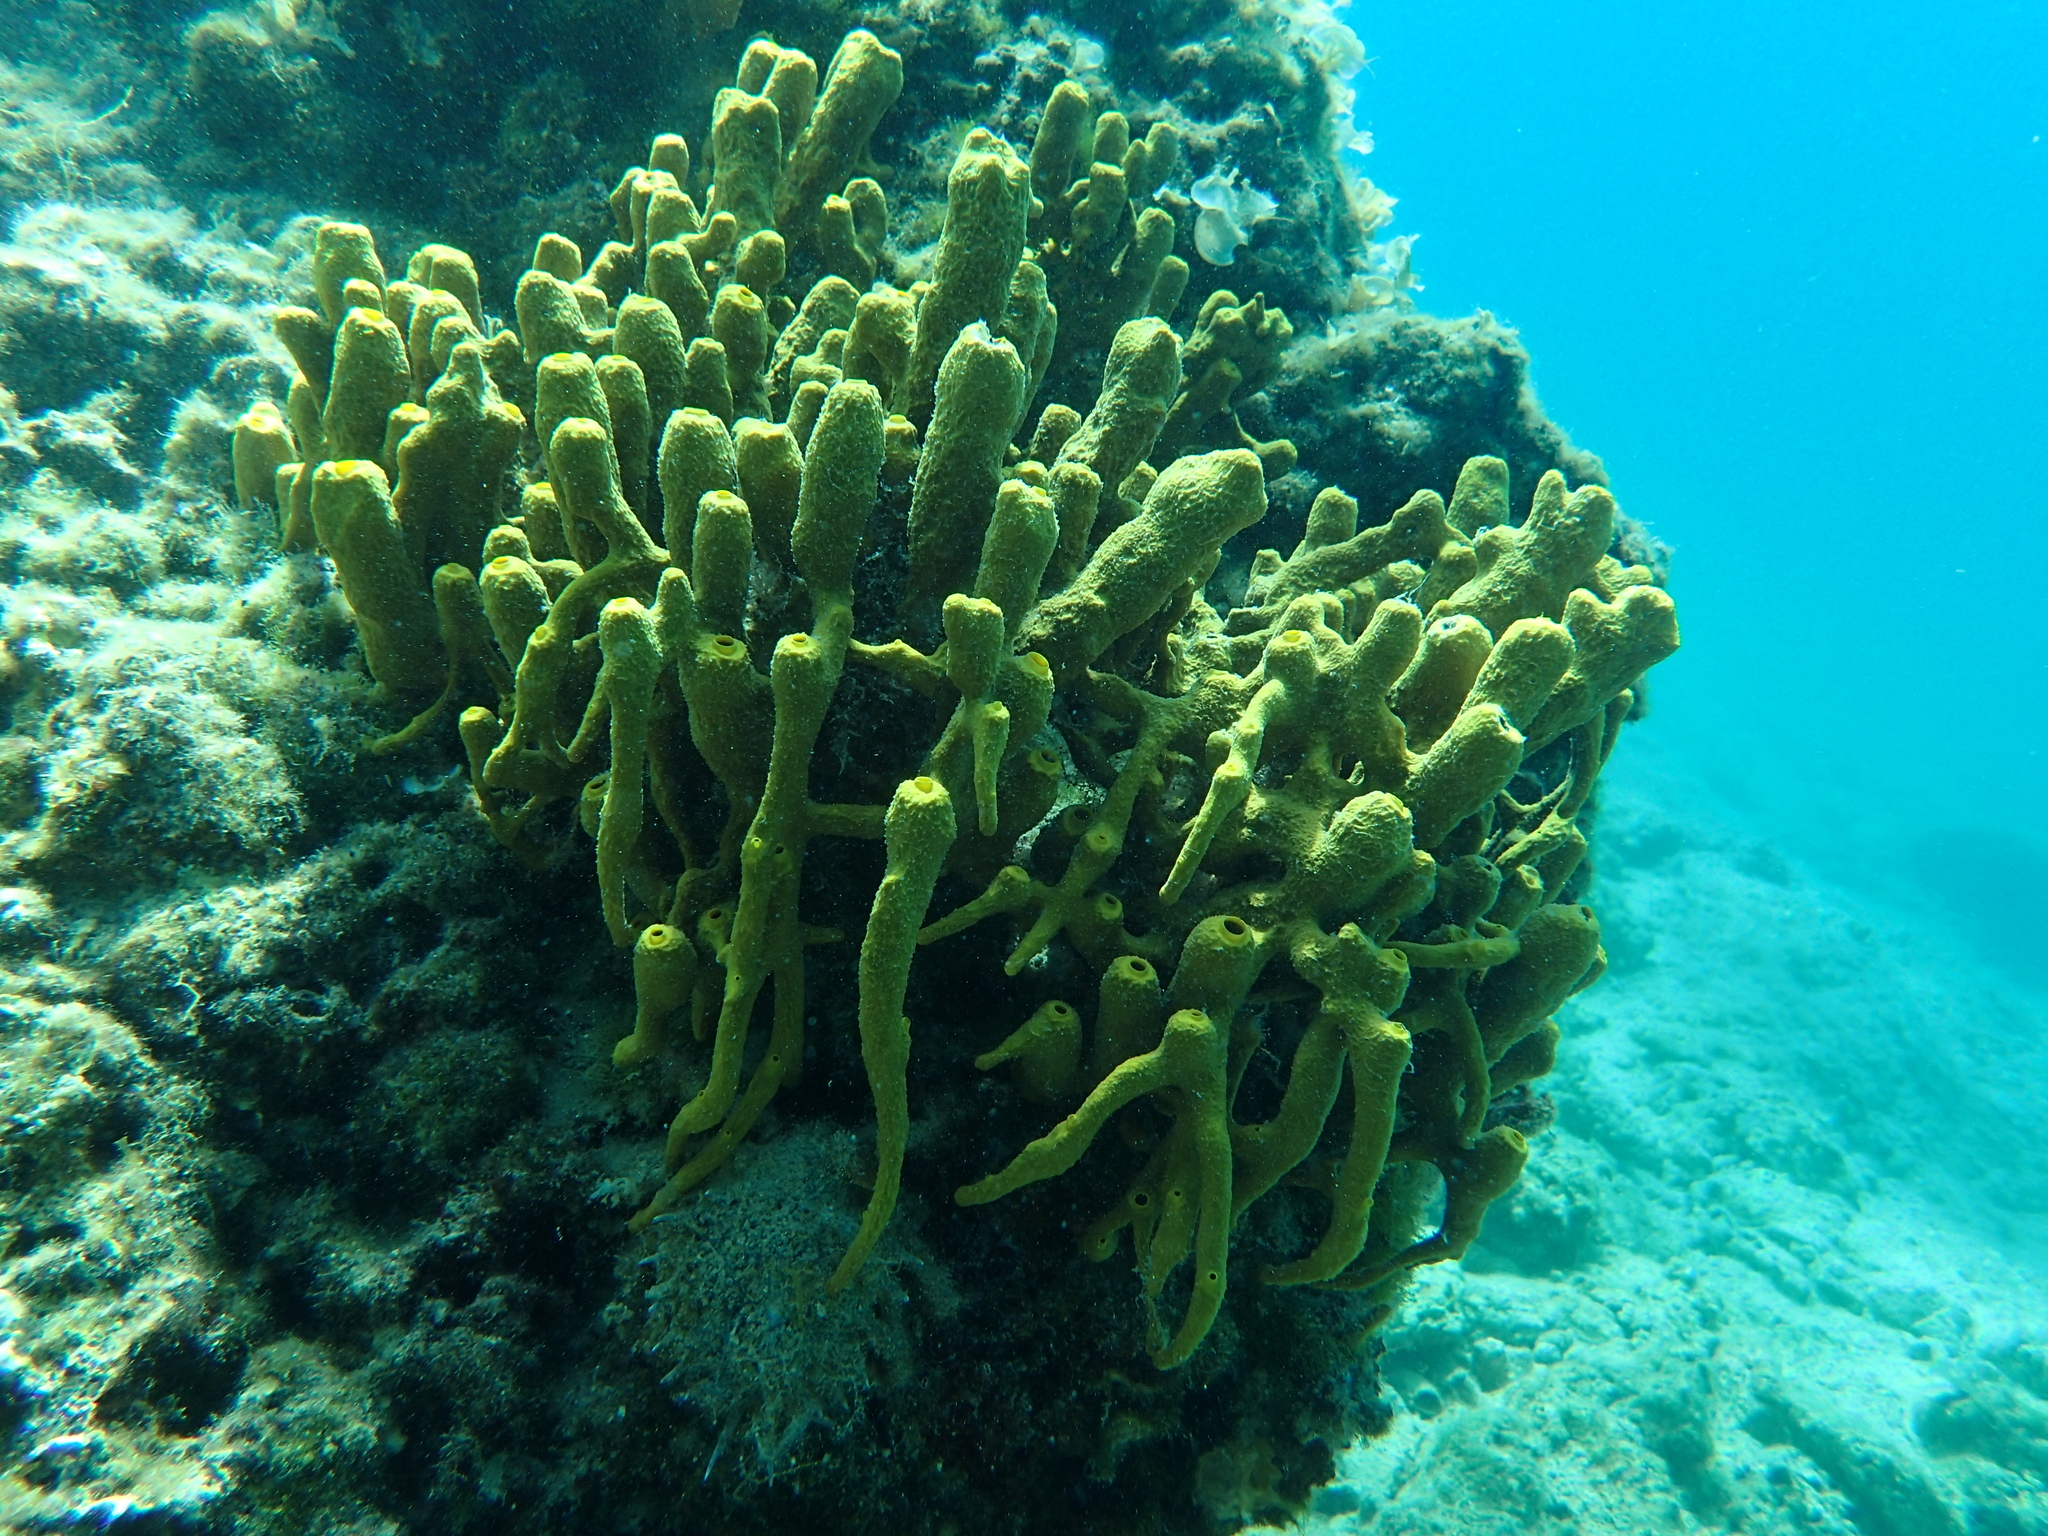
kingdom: Animalia
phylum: Porifera
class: Demospongiae
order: Verongiida
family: Aplysinidae
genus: Aplysina
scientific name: Aplysina aerophoba
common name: Aureate sponge
